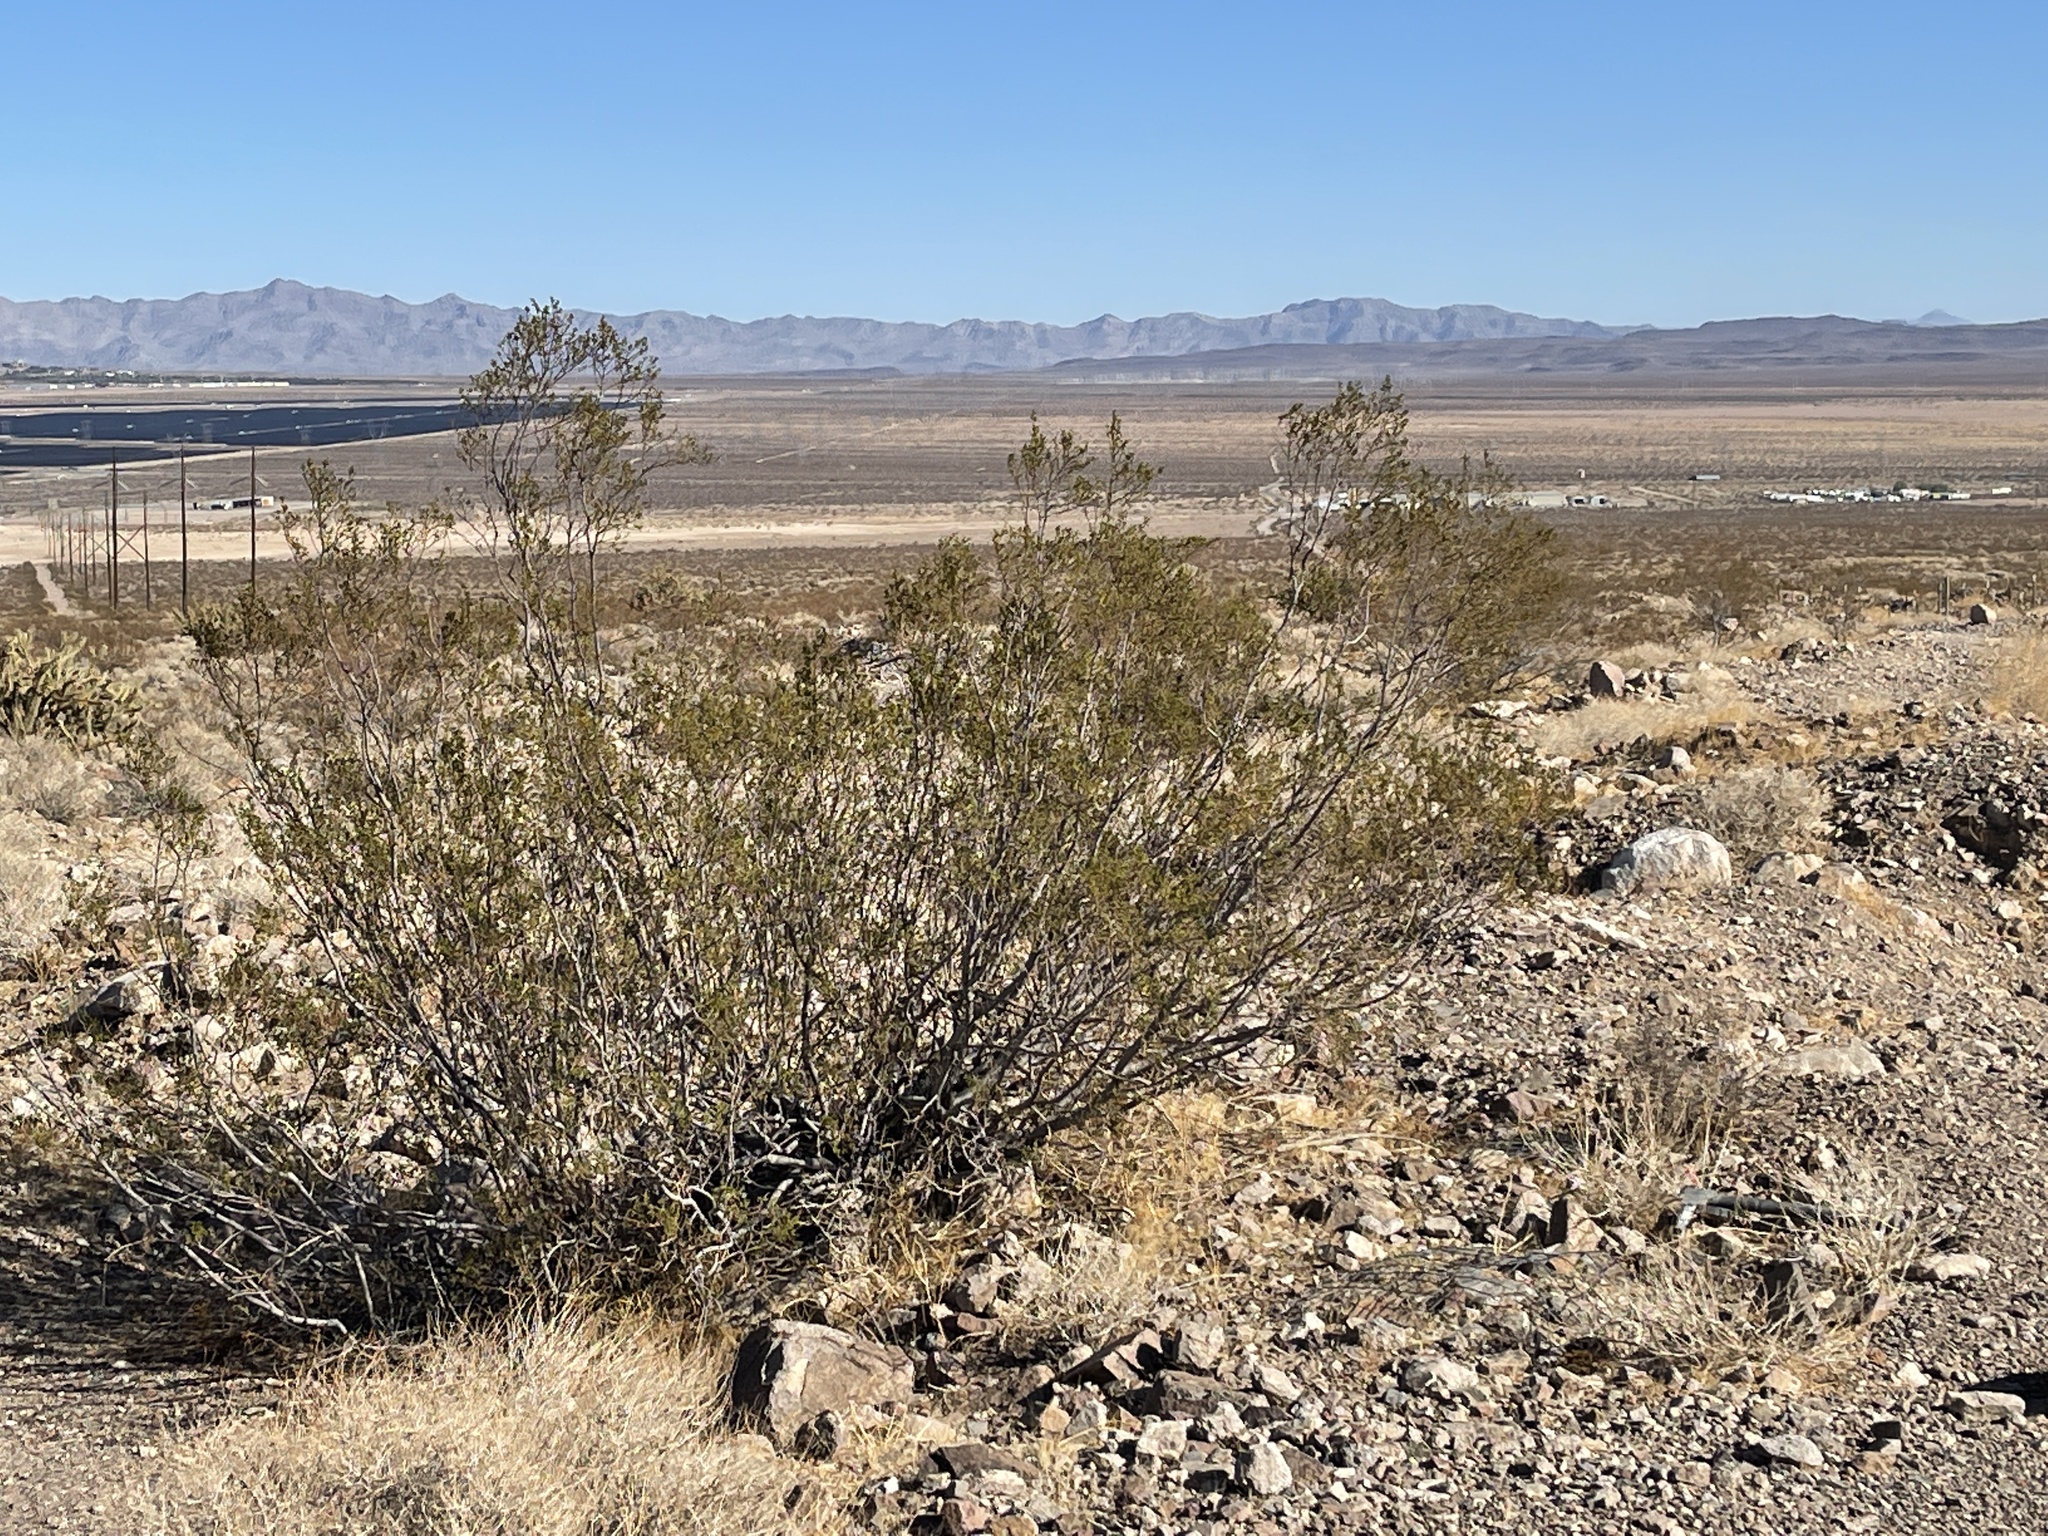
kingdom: Plantae
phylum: Tracheophyta
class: Magnoliopsida
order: Zygophyllales
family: Zygophyllaceae
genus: Larrea
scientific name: Larrea tridentata
